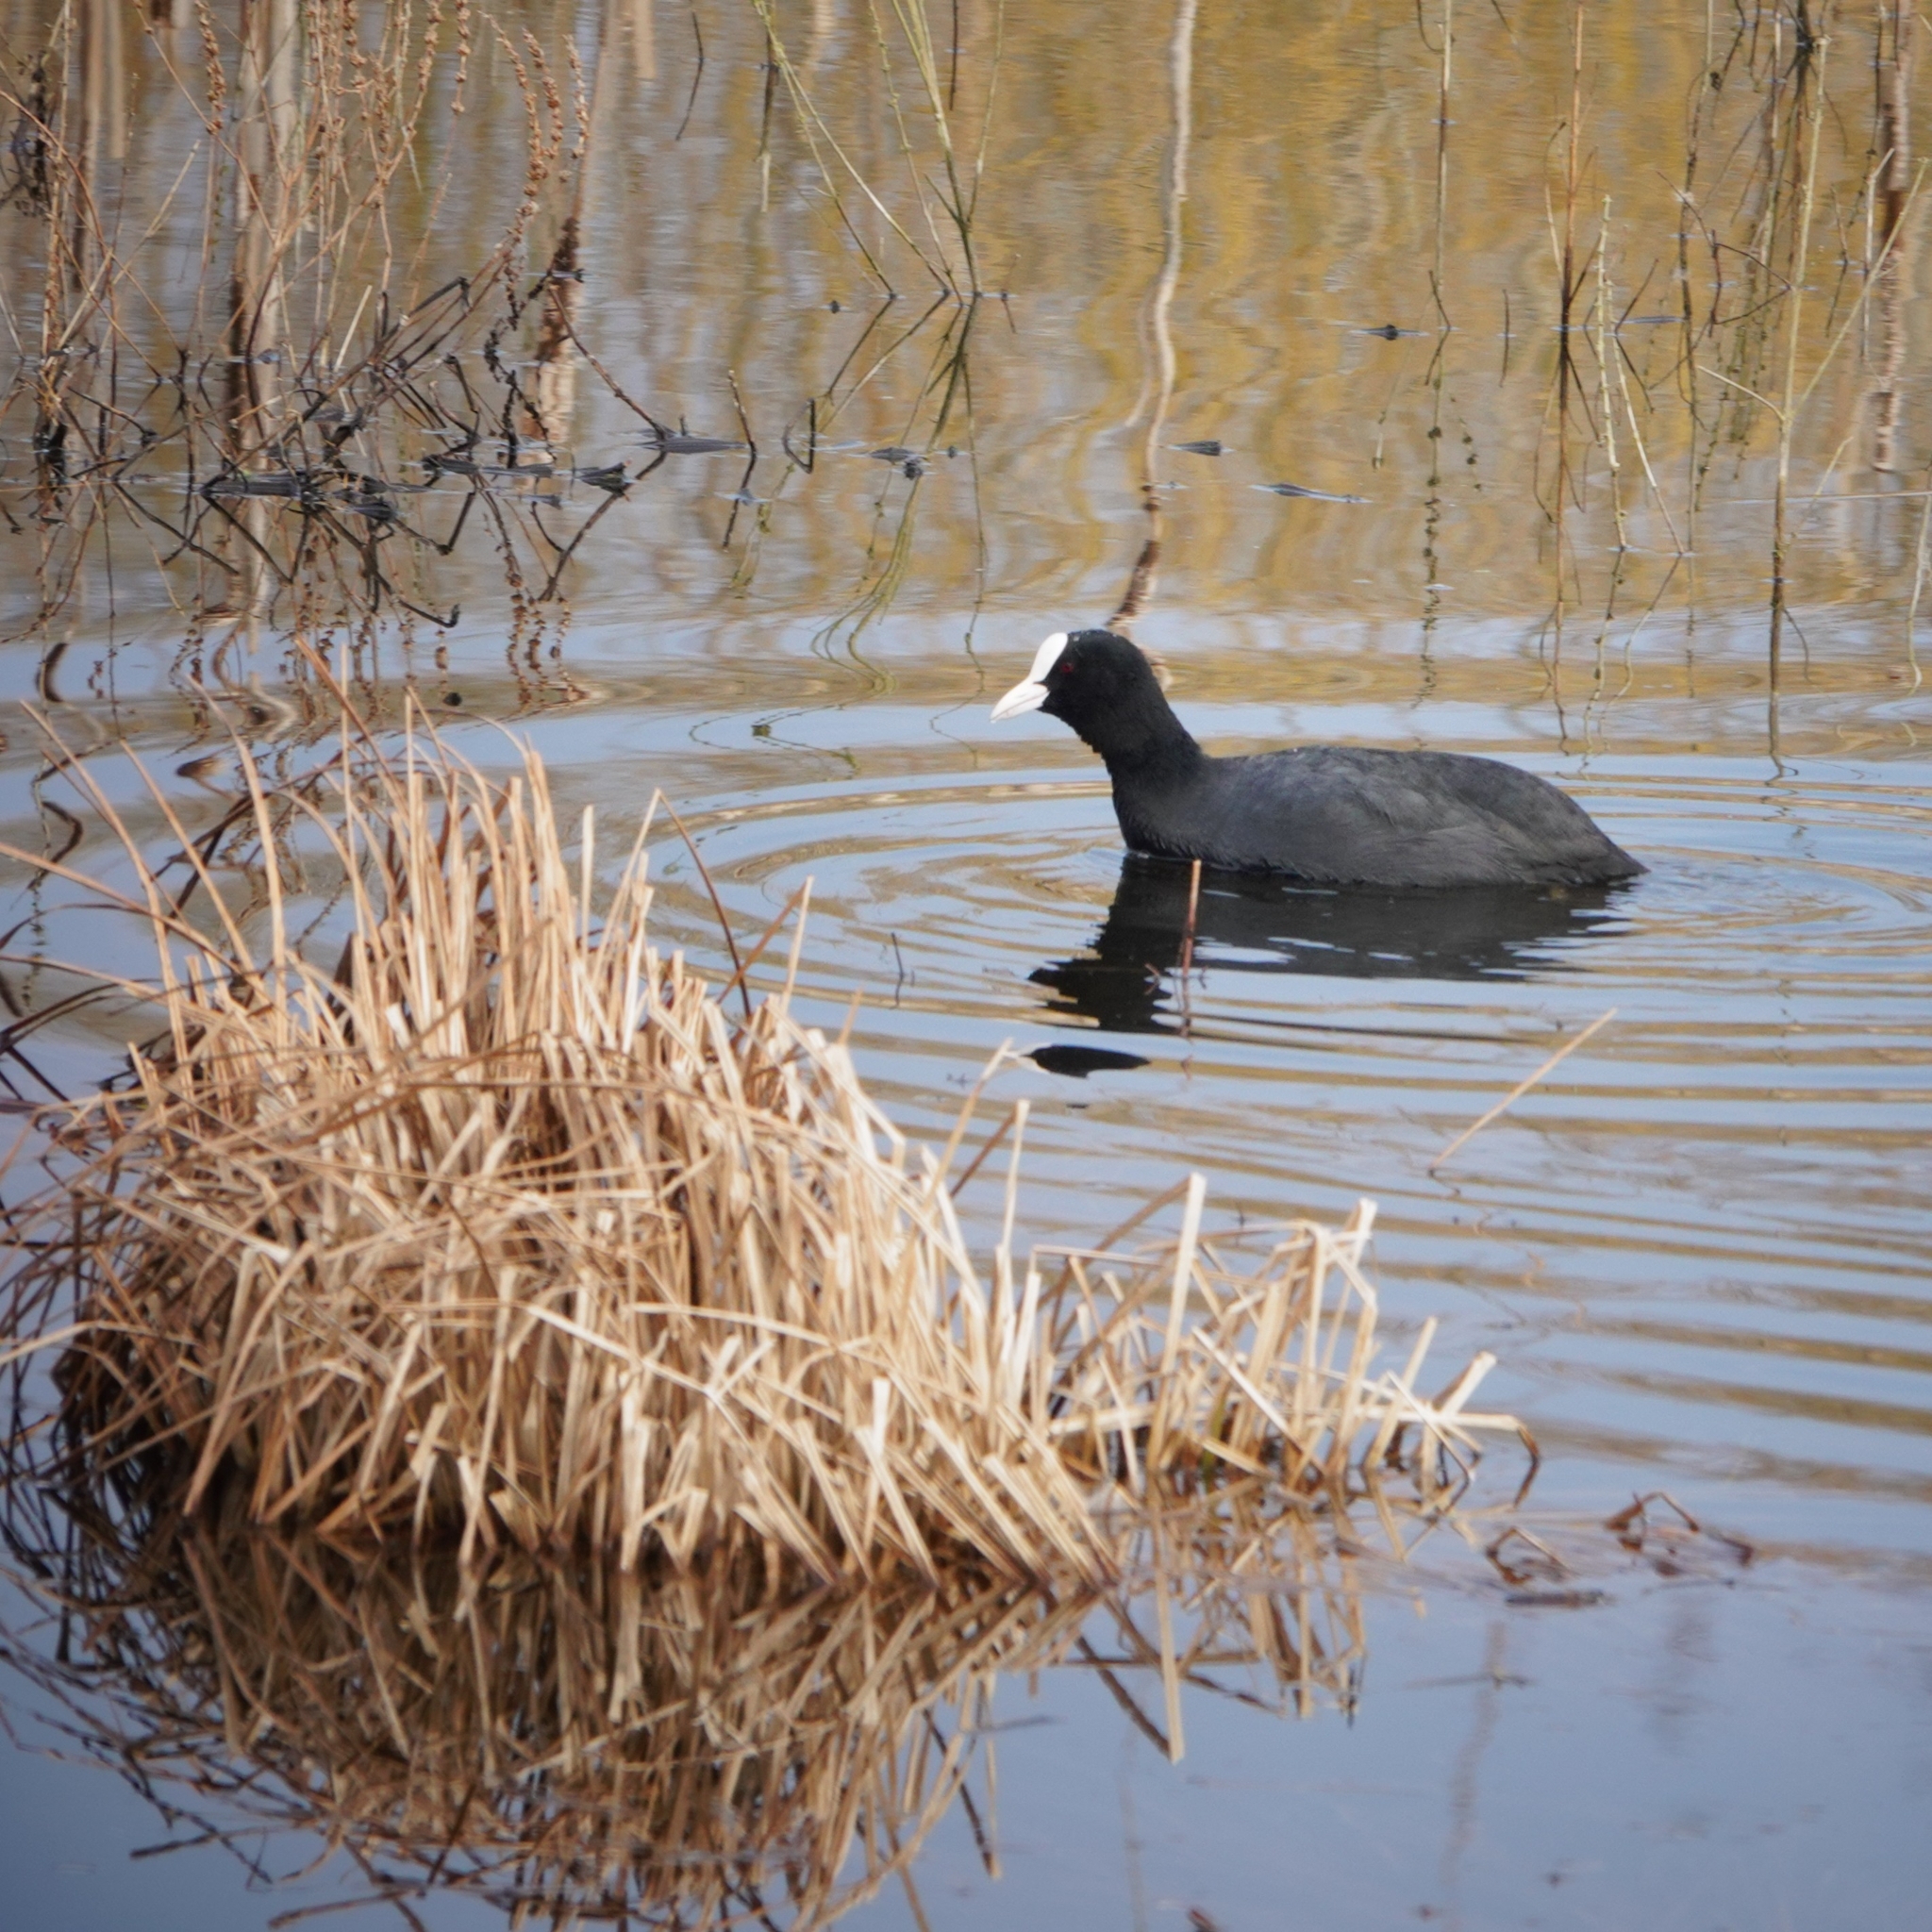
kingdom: Animalia
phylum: Chordata
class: Aves
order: Gruiformes
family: Rallidae
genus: Fulica
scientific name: Fulica atra
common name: Eurasian coot
